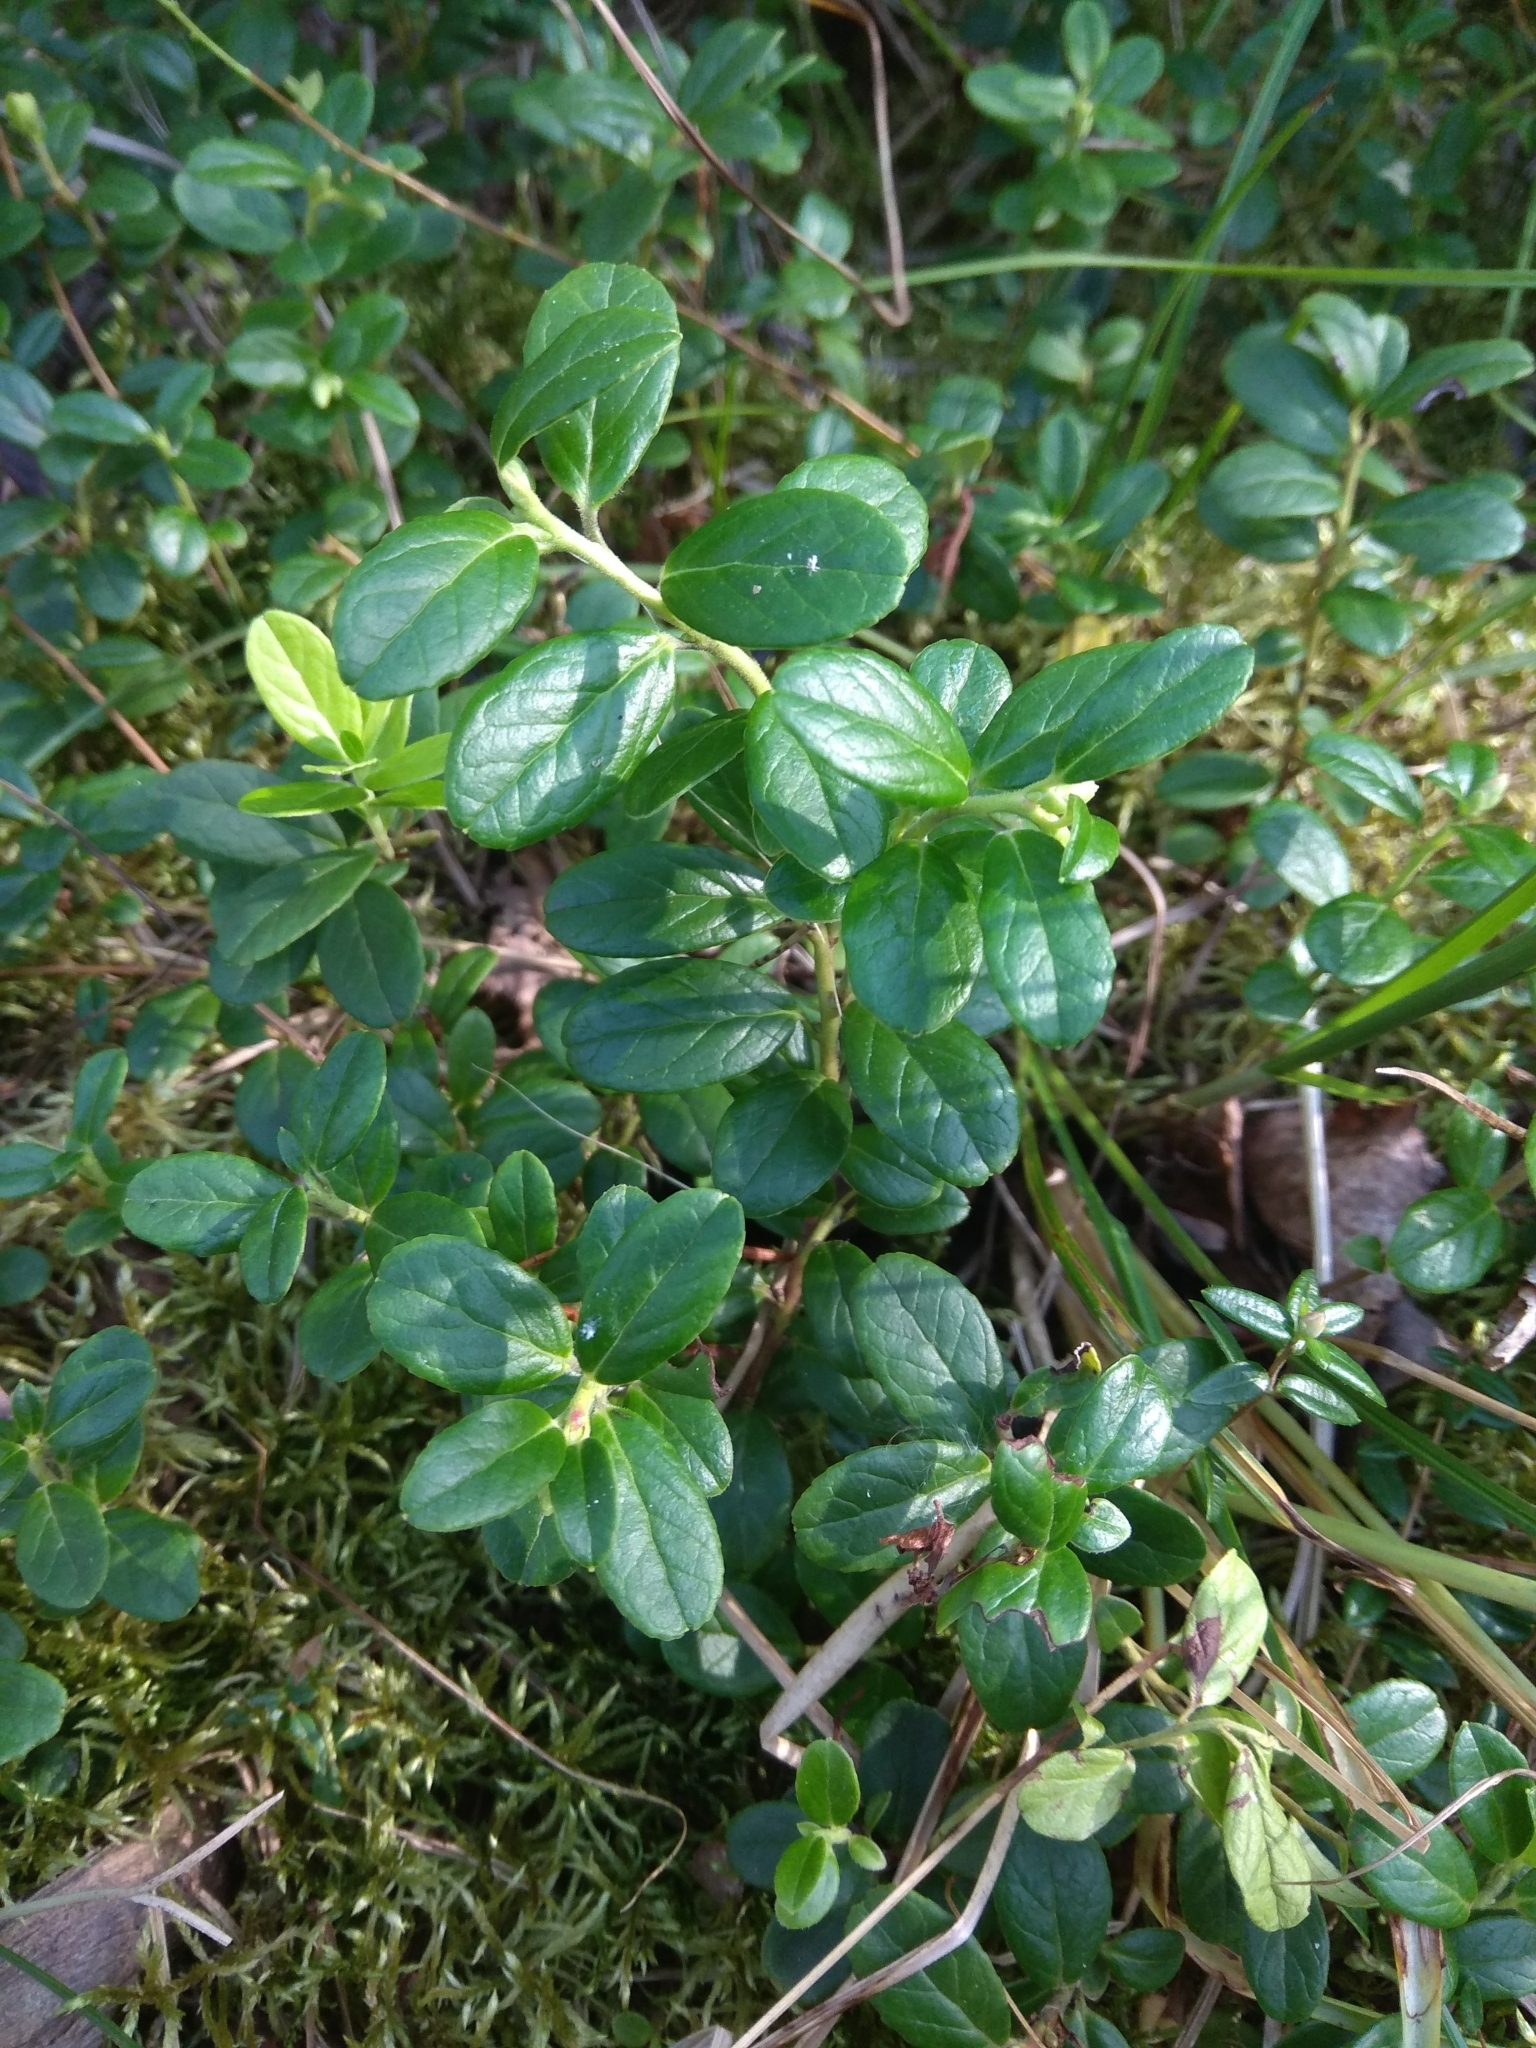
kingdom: Plantae
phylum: Tracheophyta
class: Magnoliopsida
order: Ericales
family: Ericaceae
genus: Vaccinium
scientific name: Vaccinium vitis-idaea
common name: Cowberry
